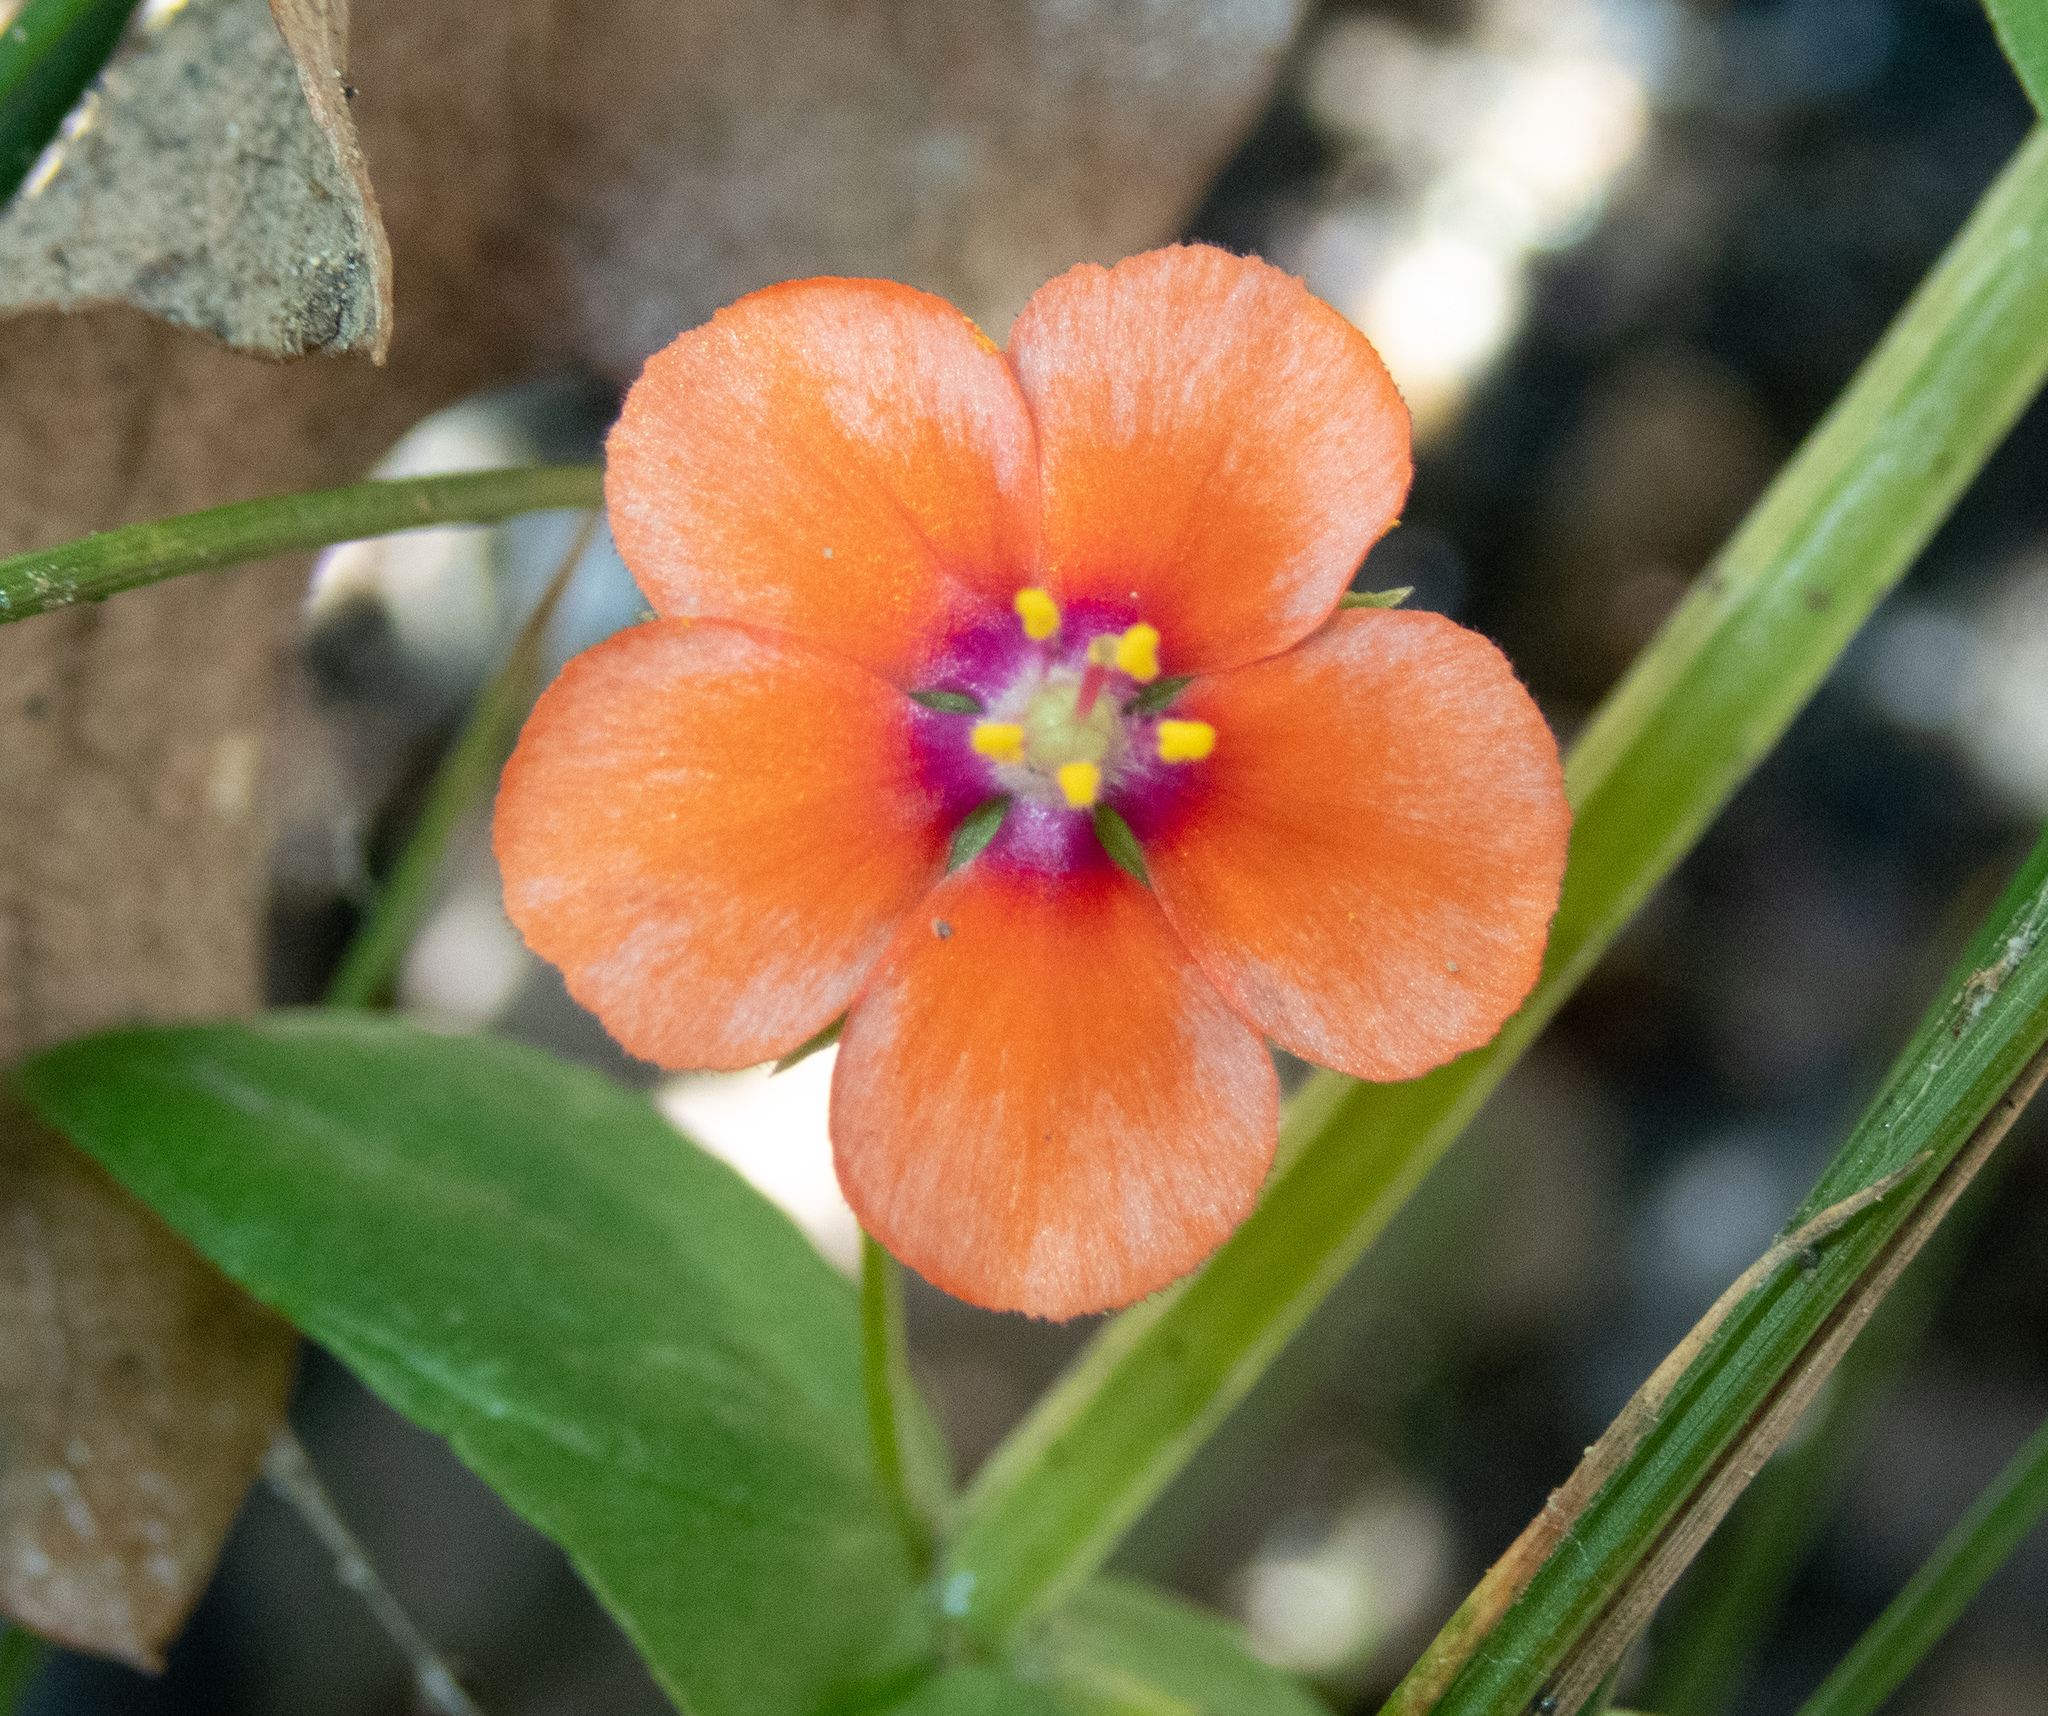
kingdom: Plantae
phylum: Tracheophyta
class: Magnoliopsida
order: Ericales
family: Primulaceae
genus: Lysimachia
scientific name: Lysimachia arvensis
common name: Scarlet pimpernel
